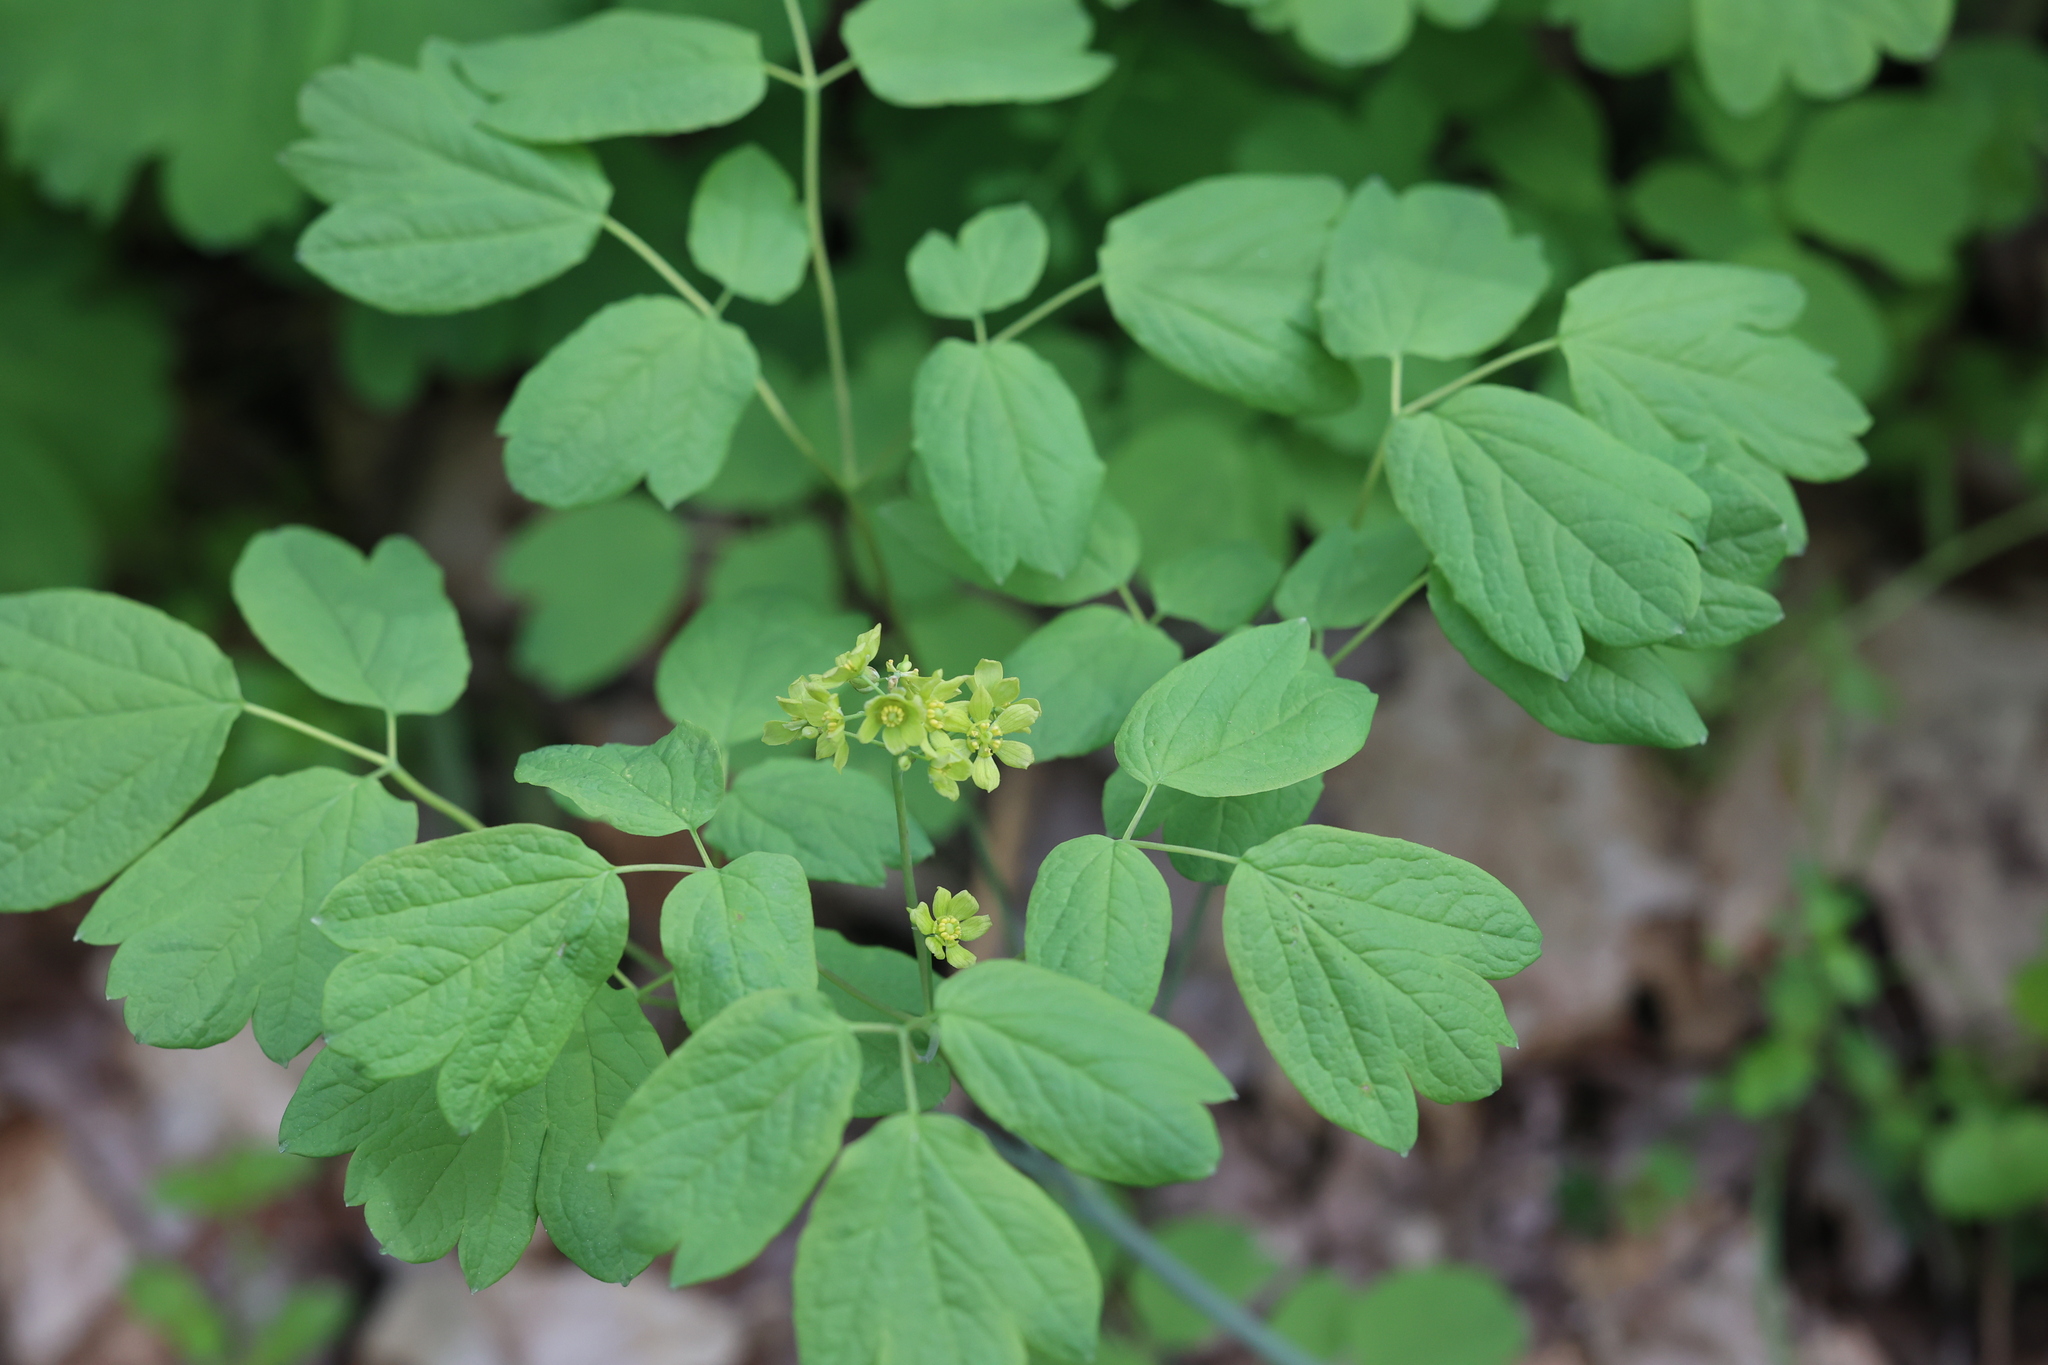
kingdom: Plantae
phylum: Tracheophyta
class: Magnoliopsida
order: Ranunculales
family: Berberidaceae
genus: Caulophyllum
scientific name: Caulophyllum thalictroides
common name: Blue cohosh
